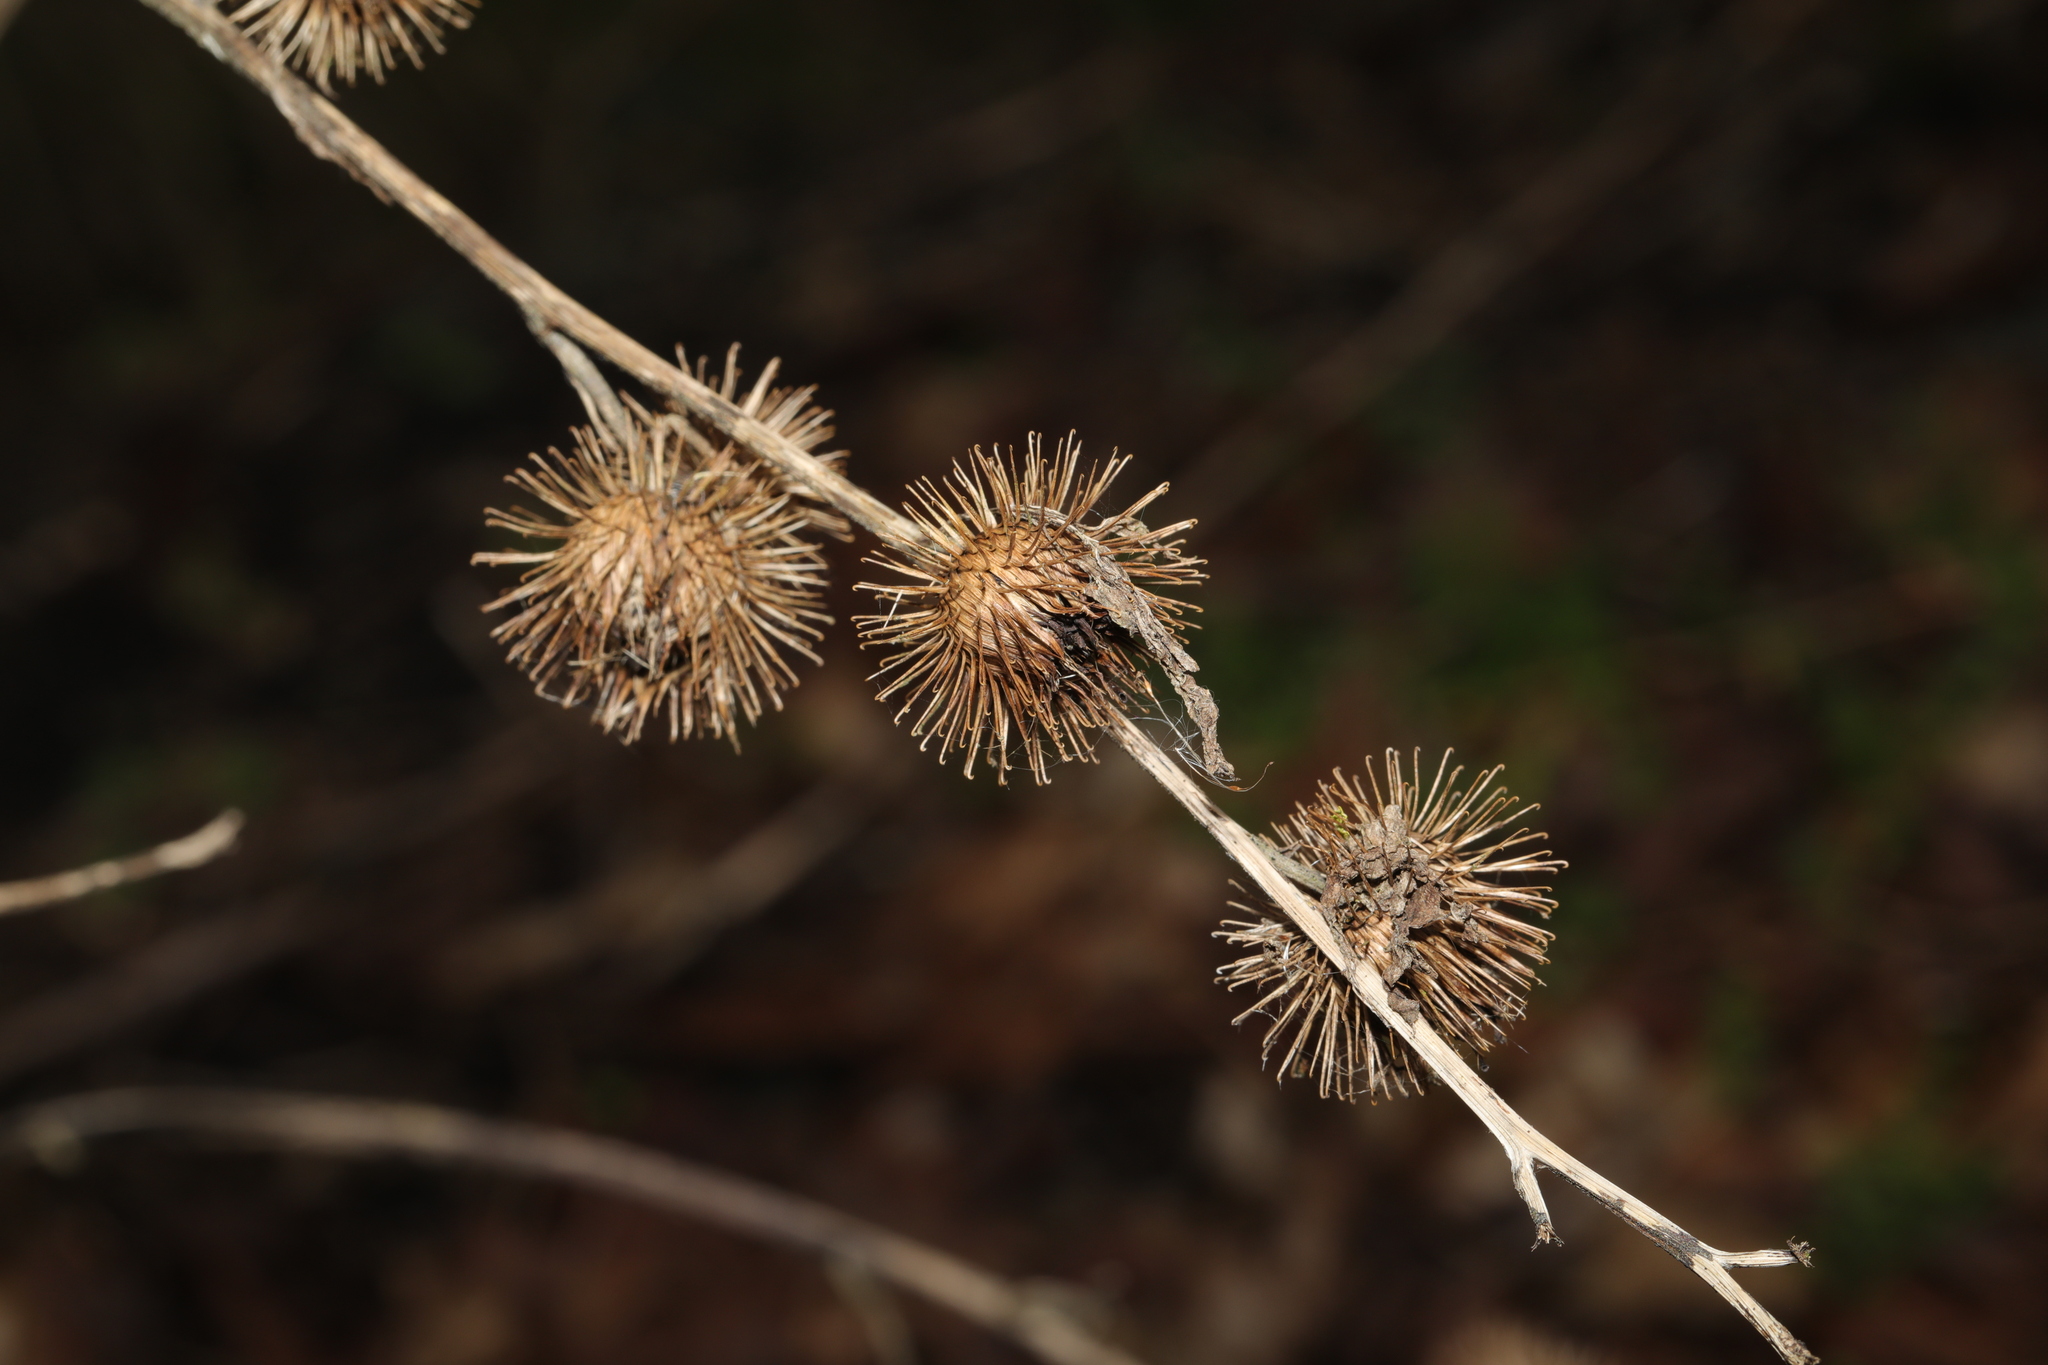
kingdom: Plantae
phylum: Tracheophyta
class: Magnoliopsida
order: Asterales
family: Asteraceae
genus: Arctium
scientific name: Arctium minus
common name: Lesser burdock
